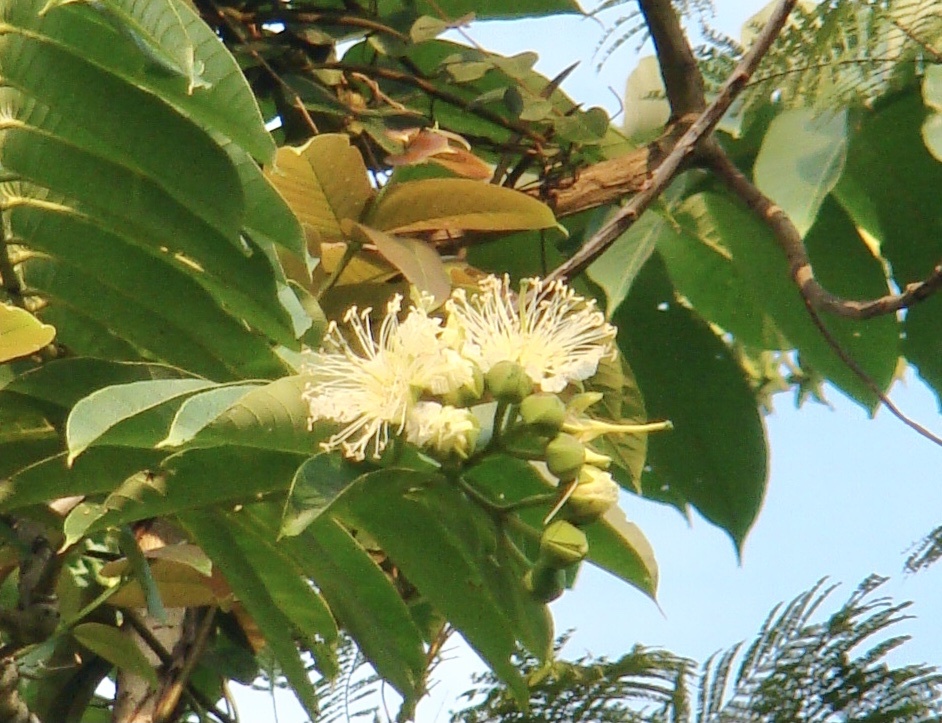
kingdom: Plantae
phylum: Tracheophyta
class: Magnoliopsida
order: Myrtales
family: Lythraceae
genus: Duabanga
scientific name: Duabanga grandiflora
